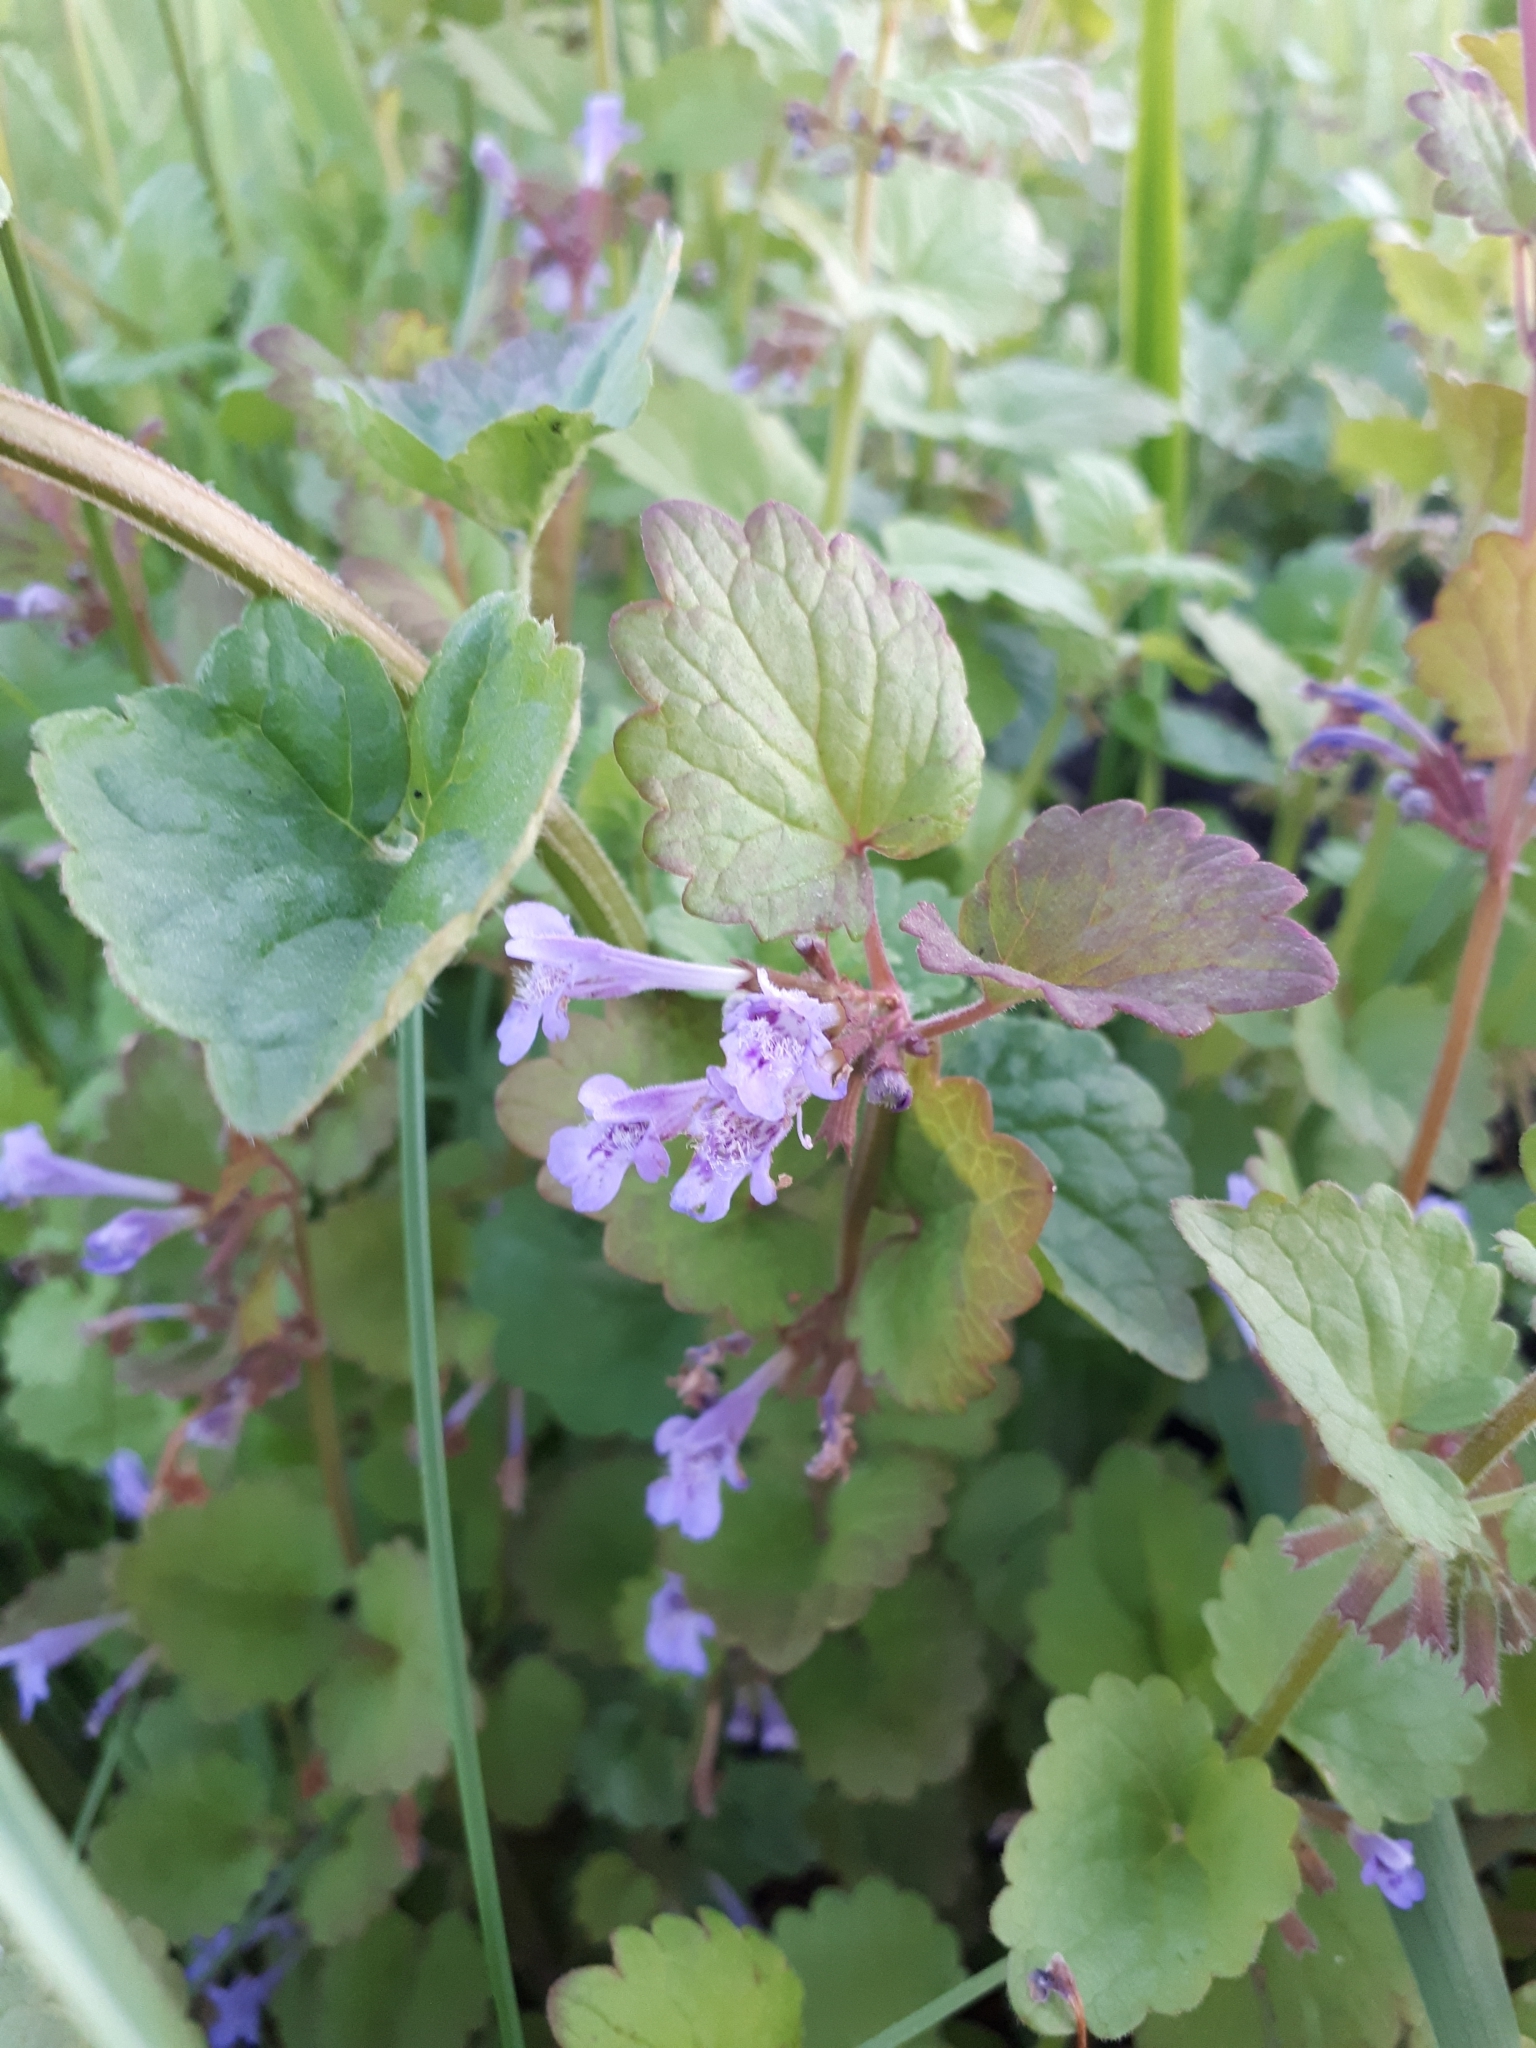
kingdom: Plantae
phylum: Tracheophyta
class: Magnoliopsida
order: Lamiales
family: Lamiaceae
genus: Glechoma
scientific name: Glechoma hederacea
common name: Ground ivy
